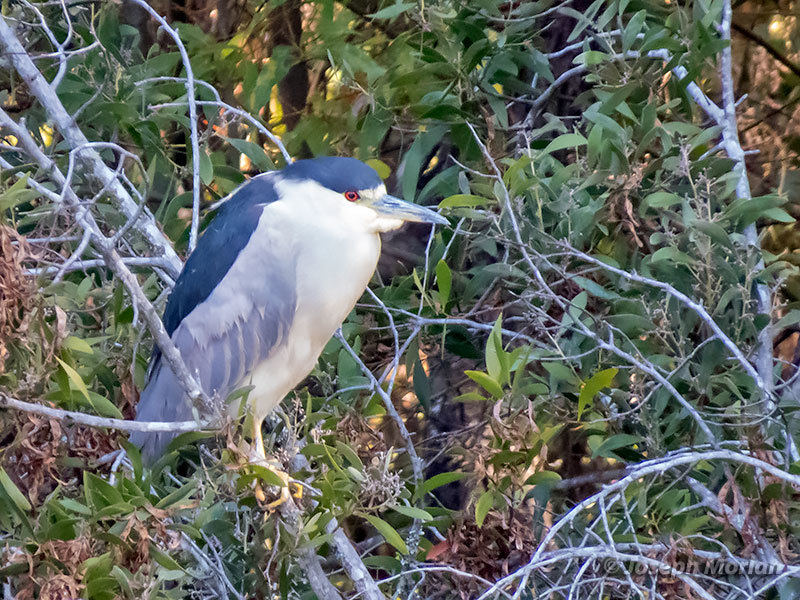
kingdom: Animalia
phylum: Chordata
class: Aves
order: Pelecaniformes
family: Ardeidae
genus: Nycticorax
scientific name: Nycticorax nycticorax
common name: Black-crowned night heron
